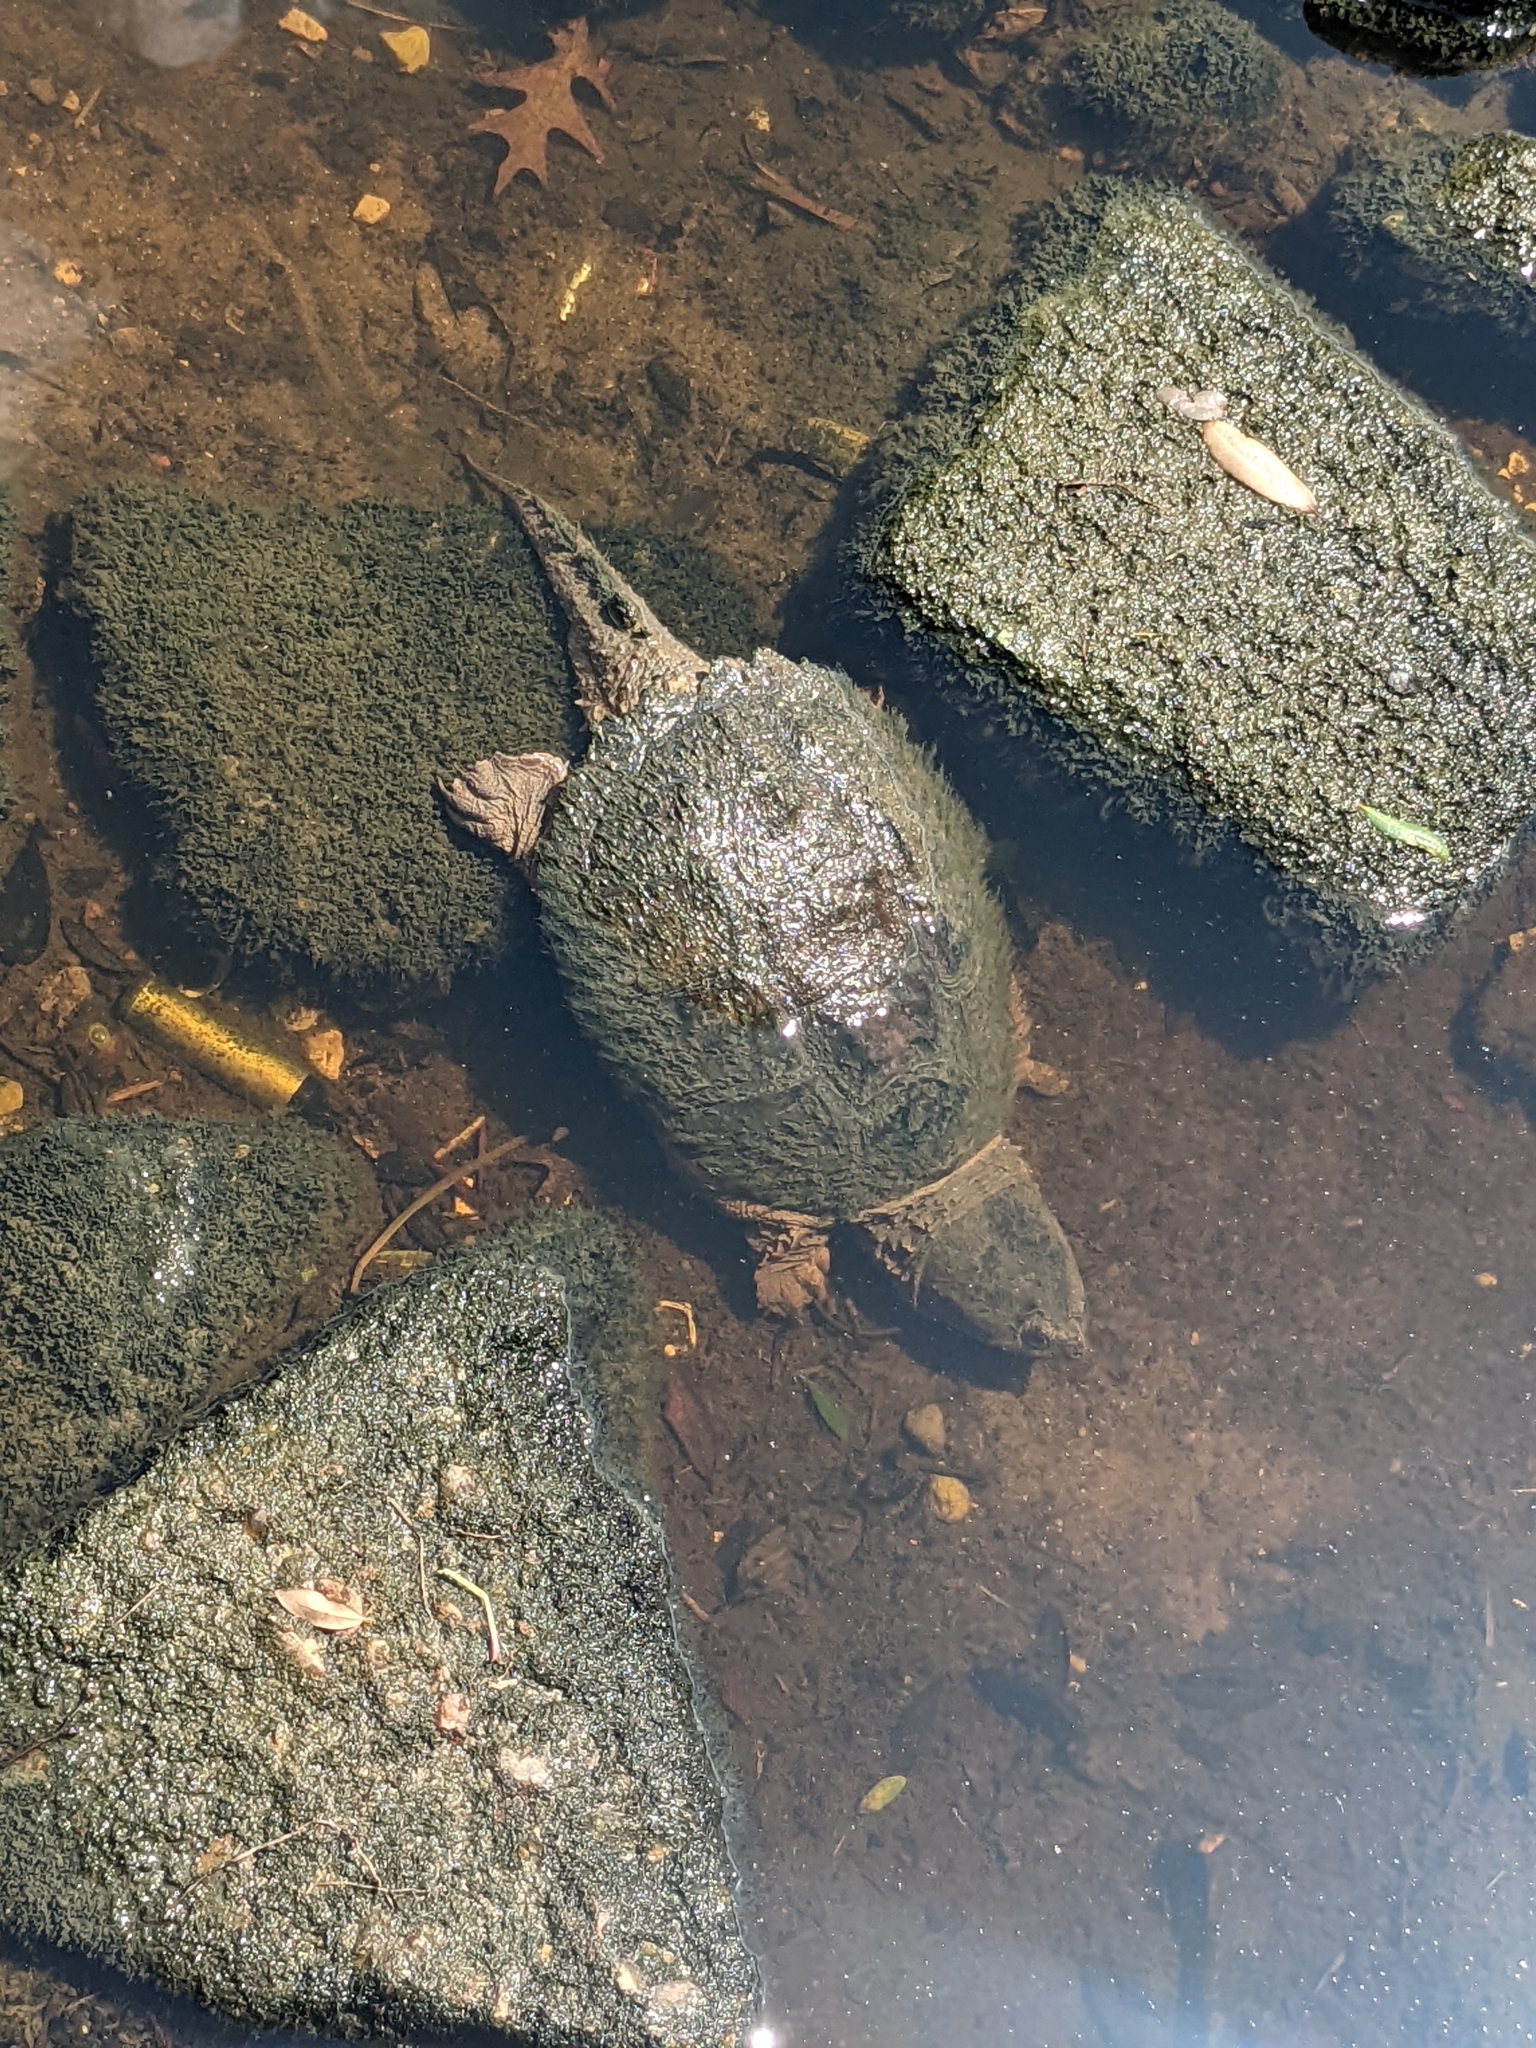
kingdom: Animalia
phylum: Chordata
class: Testudines
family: Chelydridae
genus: Chelydra
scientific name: Chelydra serpentina
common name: Common snapping turtle
